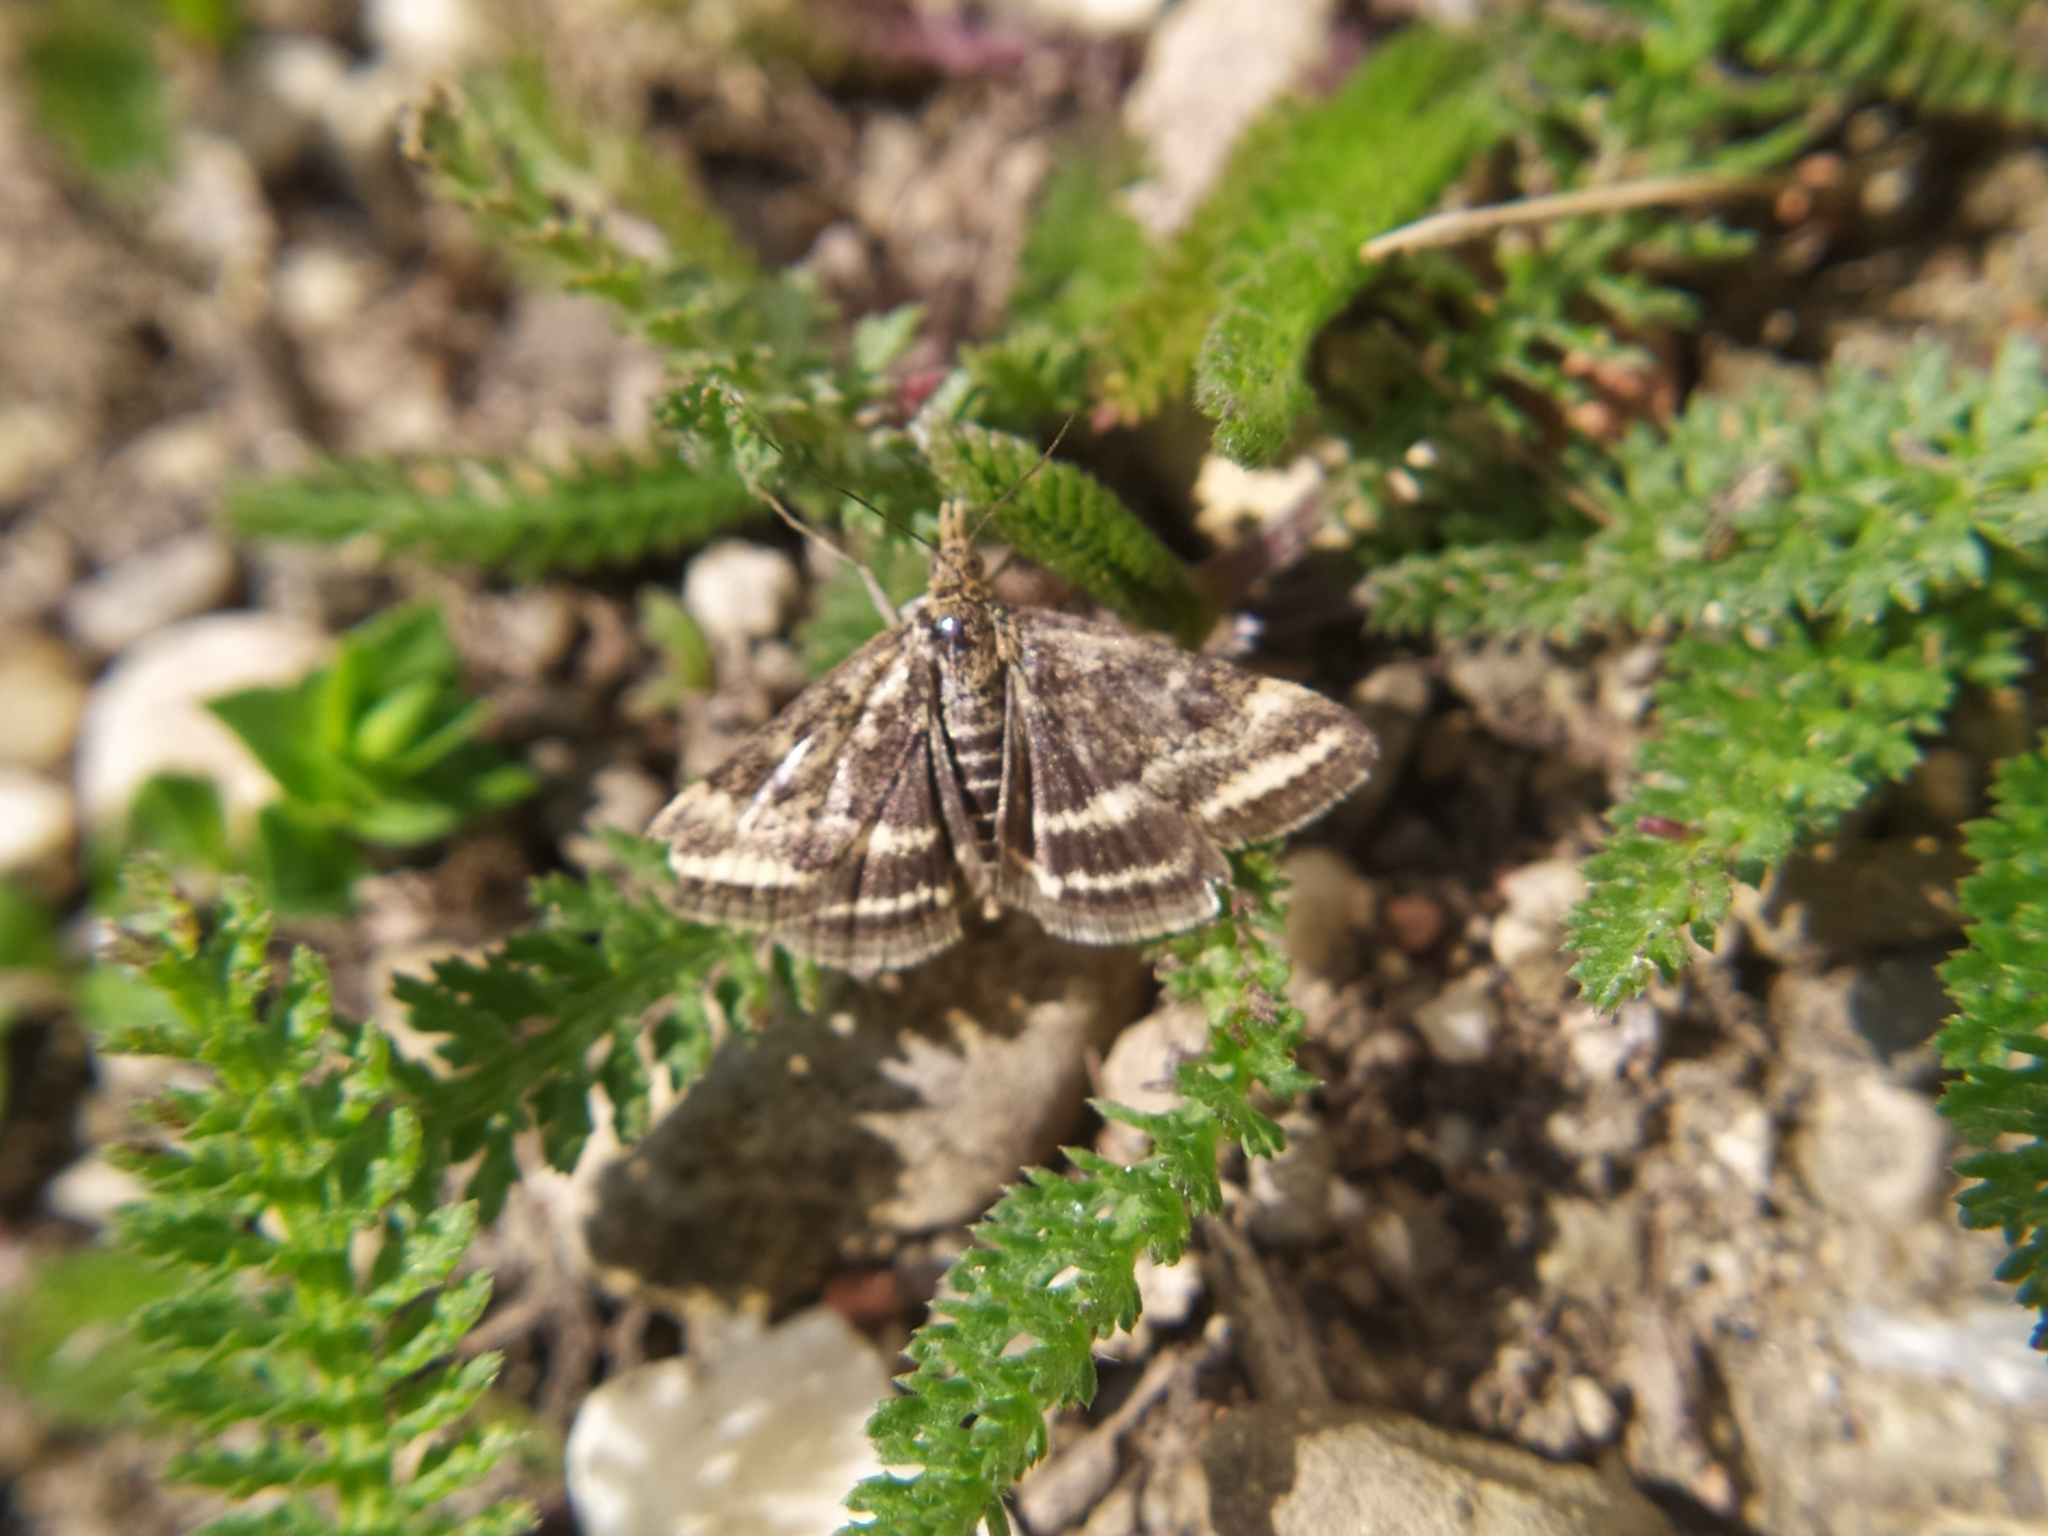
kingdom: Animalia
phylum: Arthropoda
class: Insecta
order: Lepidoptera
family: Crambidae
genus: Pyrausta
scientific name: Pyrausta despicata
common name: Straw-barred pearl
